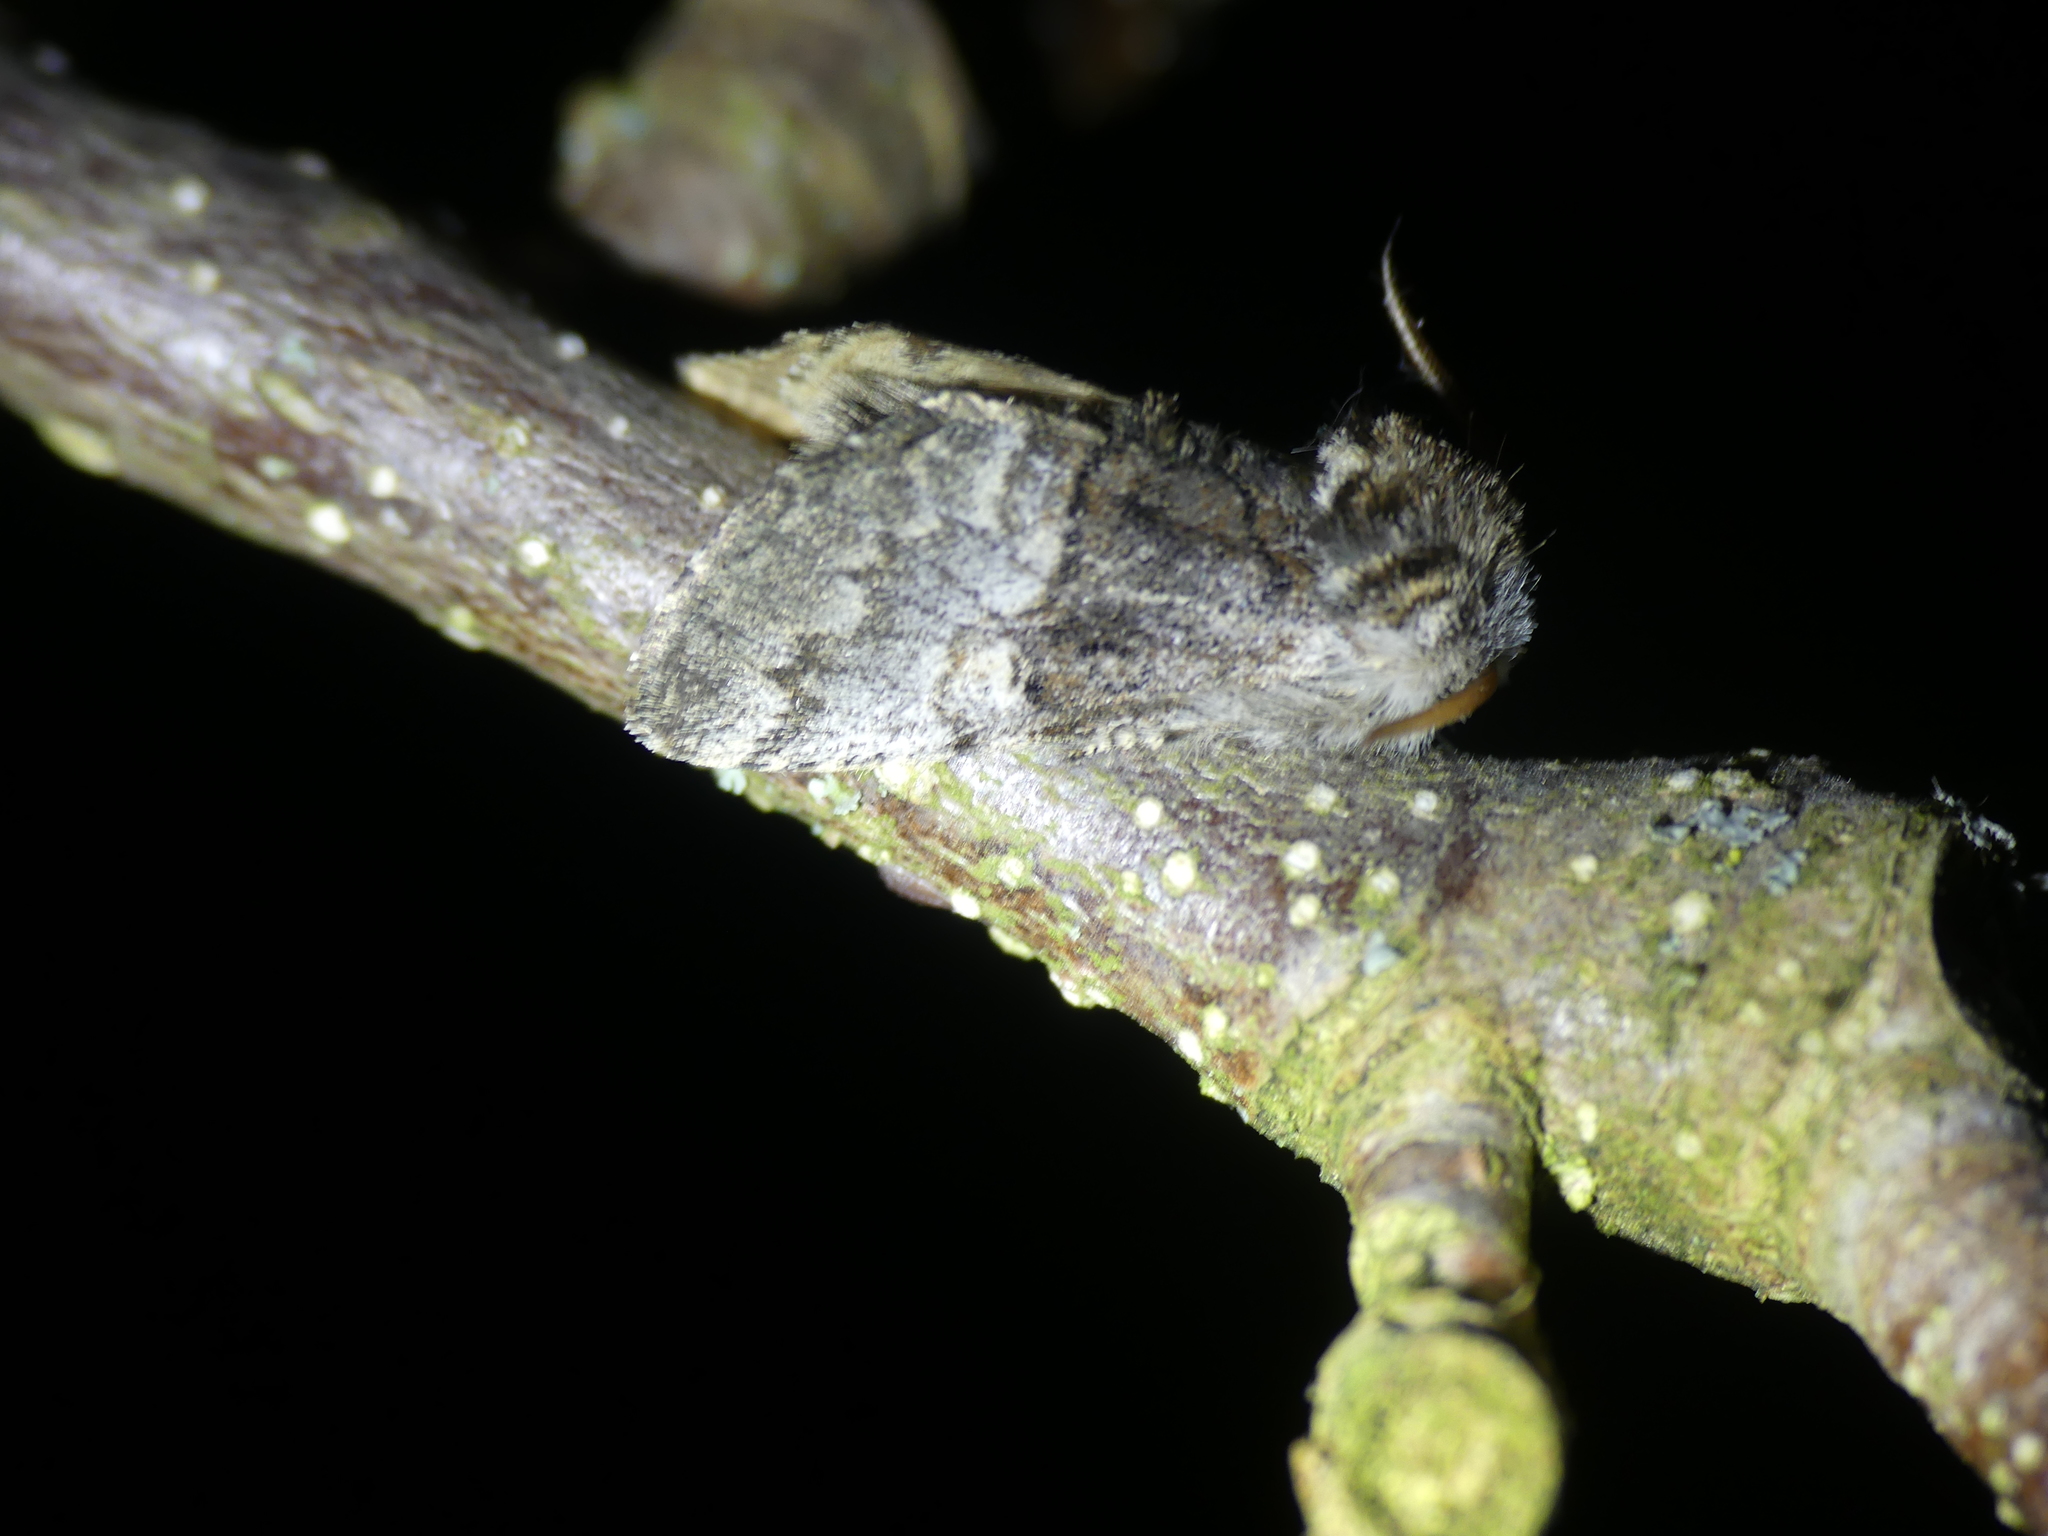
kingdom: Animalia
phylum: Arthropoda
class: Insecta
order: Lepidoptera
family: Noctuidae
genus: Colocasia
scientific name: Colocasia coryli
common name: Nut-tree tussock
